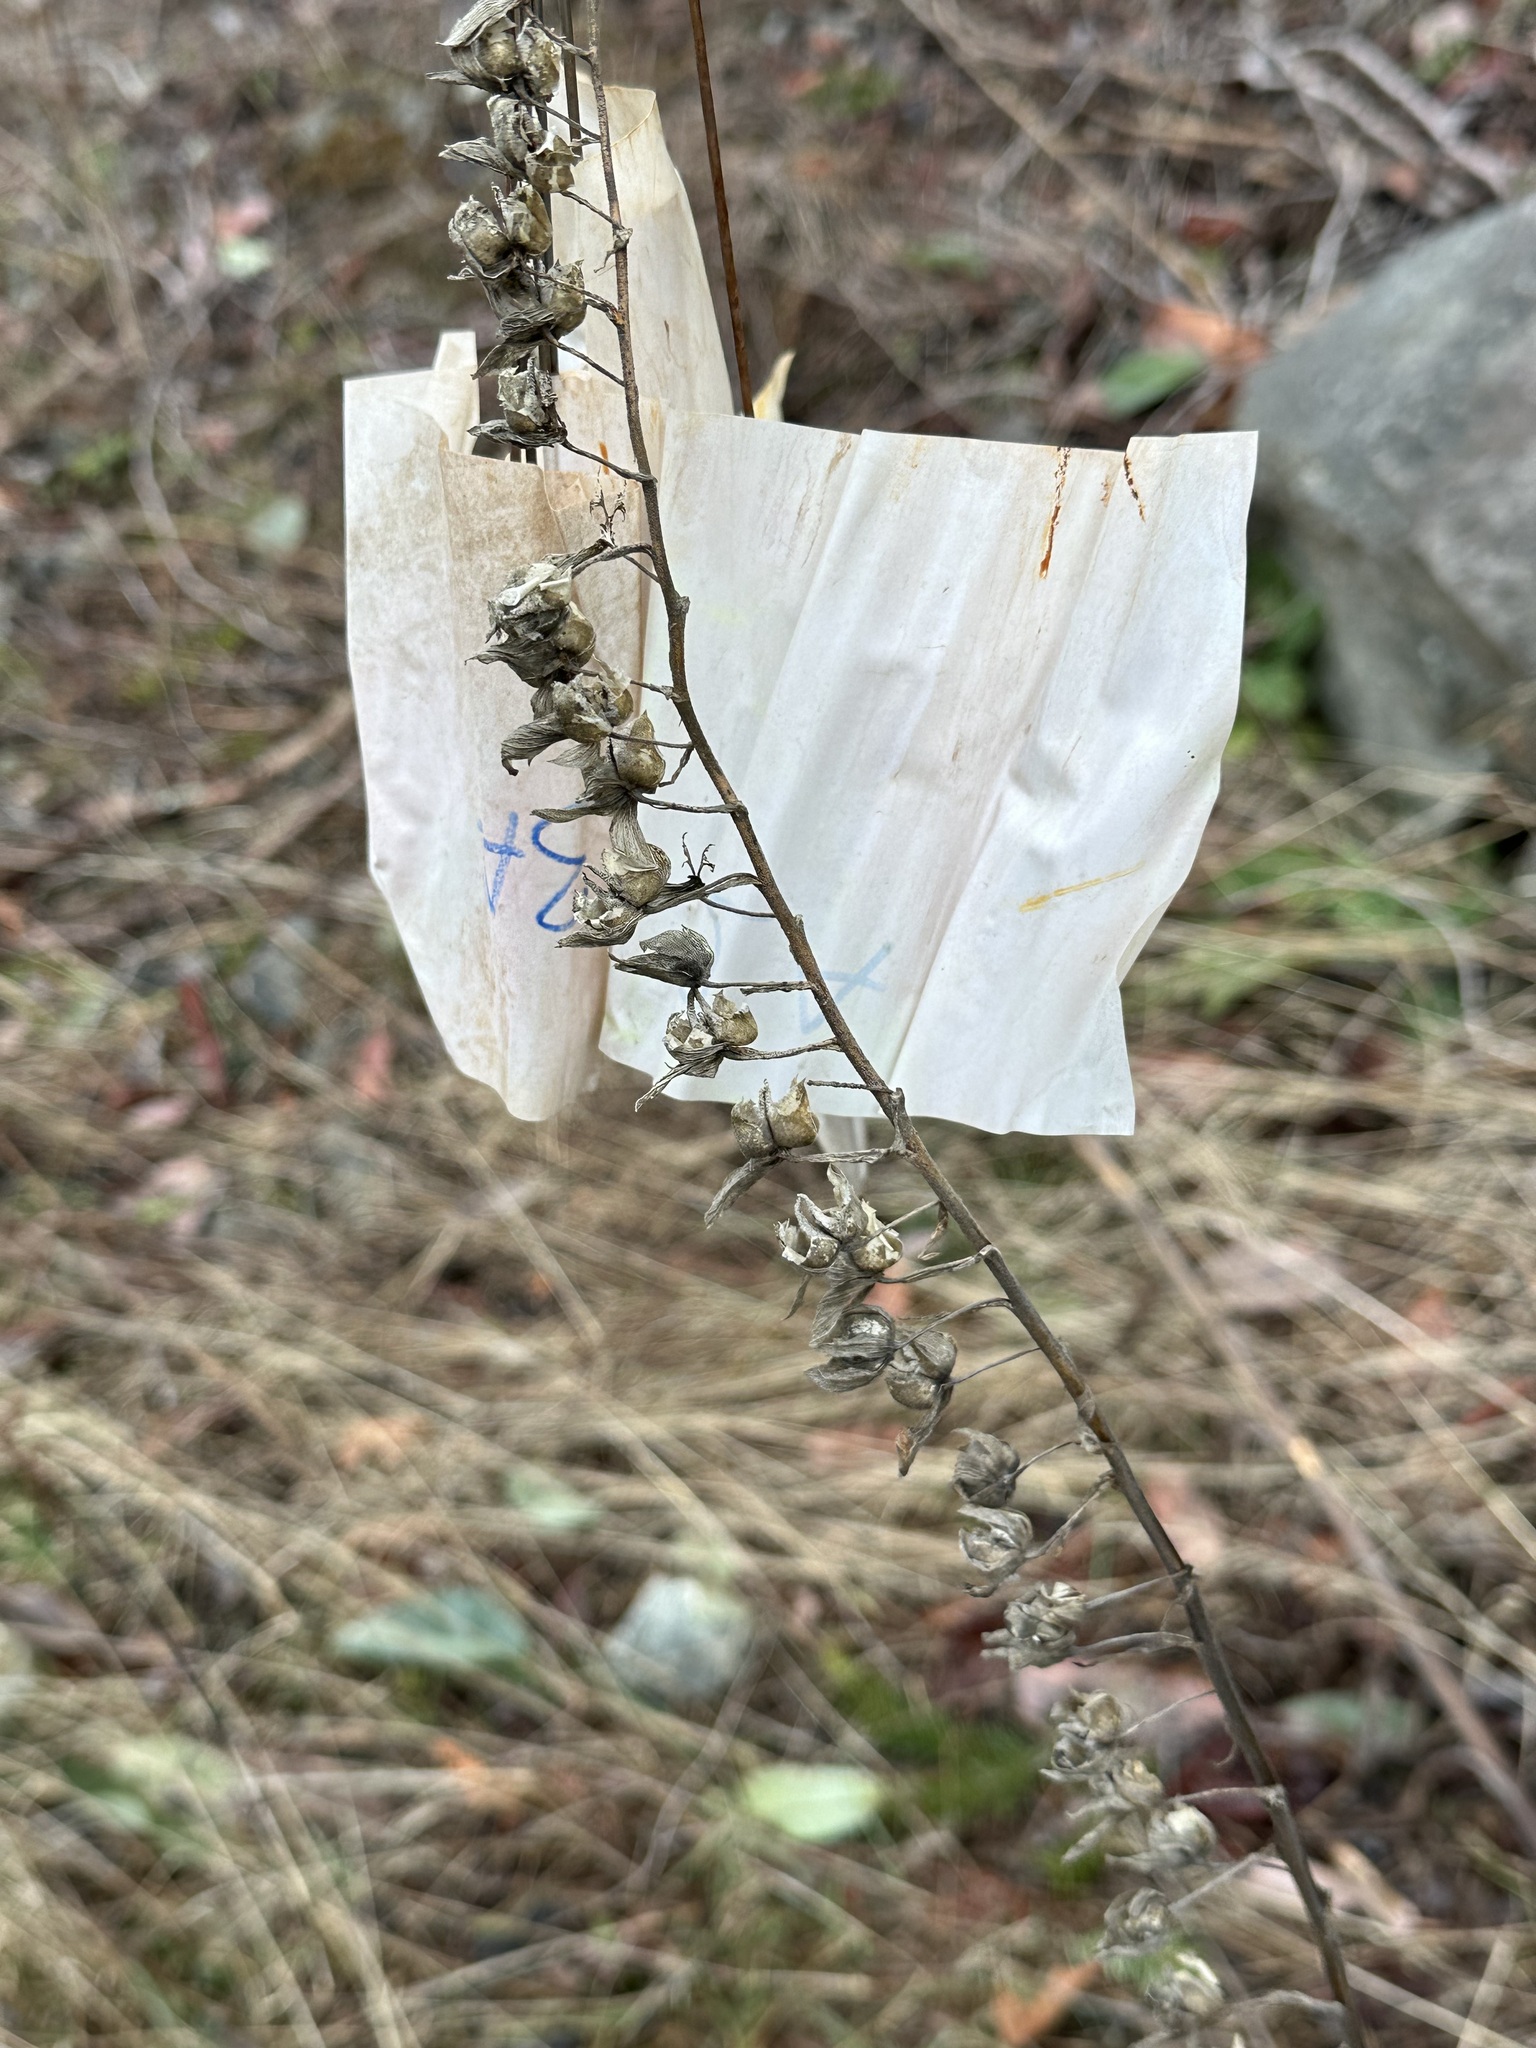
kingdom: Plantae
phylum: Tracheophyta
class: Magnoliopsida
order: Lamiales
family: Plantaginaceae
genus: Digitalis
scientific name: Digitalis purpurea
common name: Foxglove
